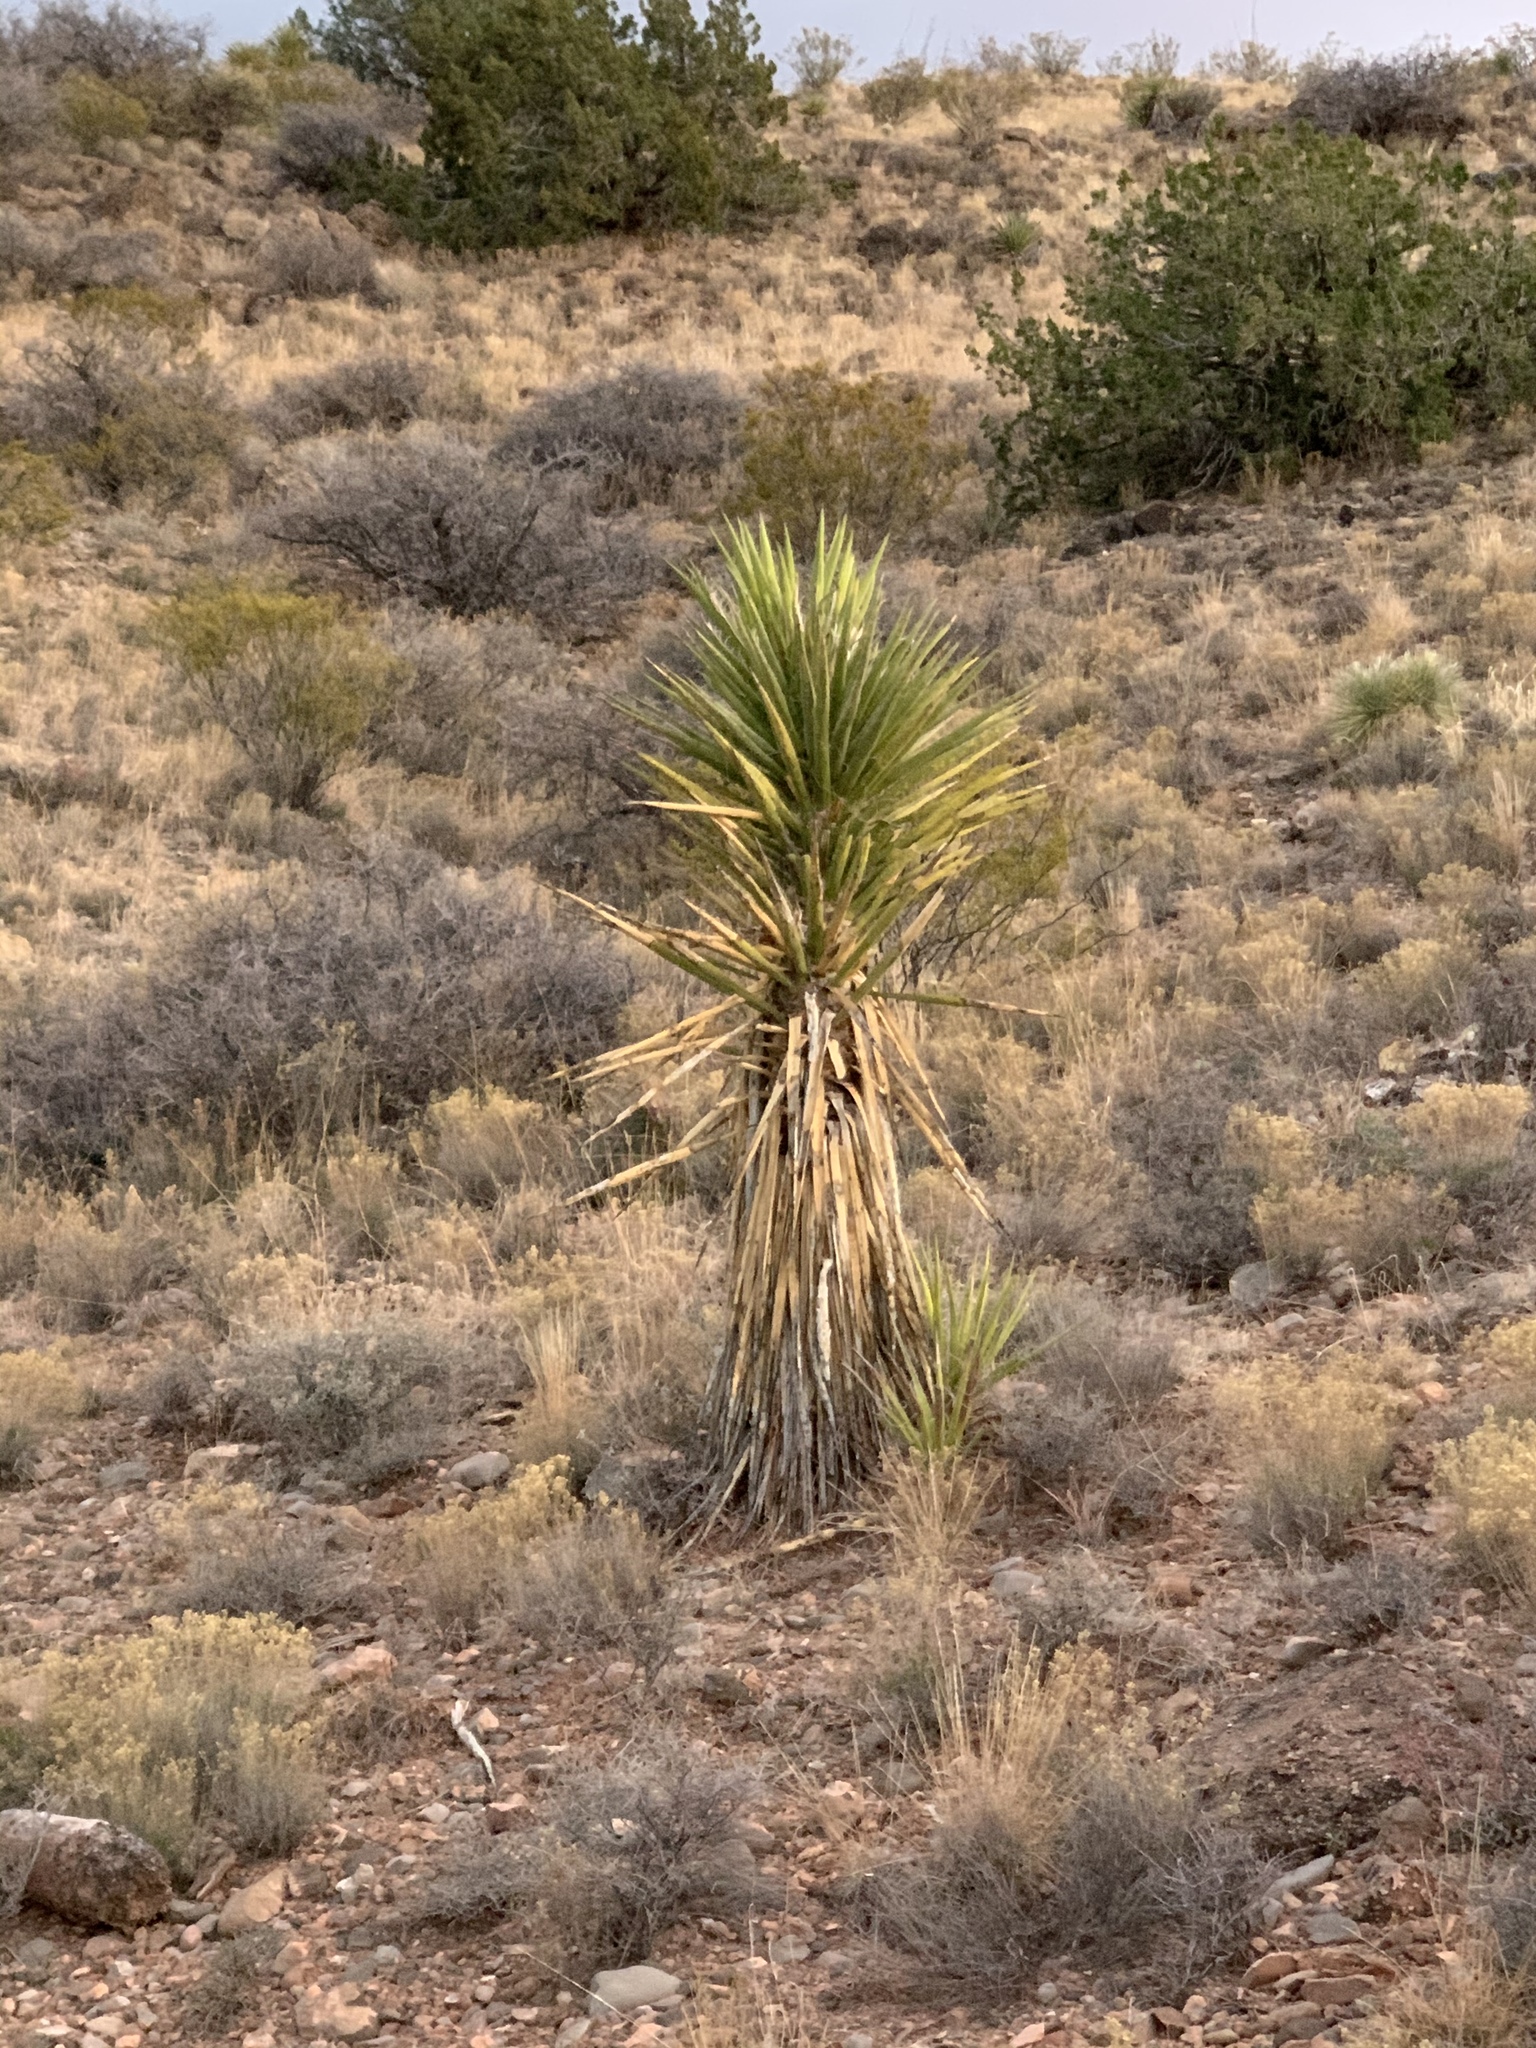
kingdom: Plantae
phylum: Tracheophyta
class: Liliopsida
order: Asparagales
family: Asparagaceae
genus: Yucca
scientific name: Yucca treculiana
